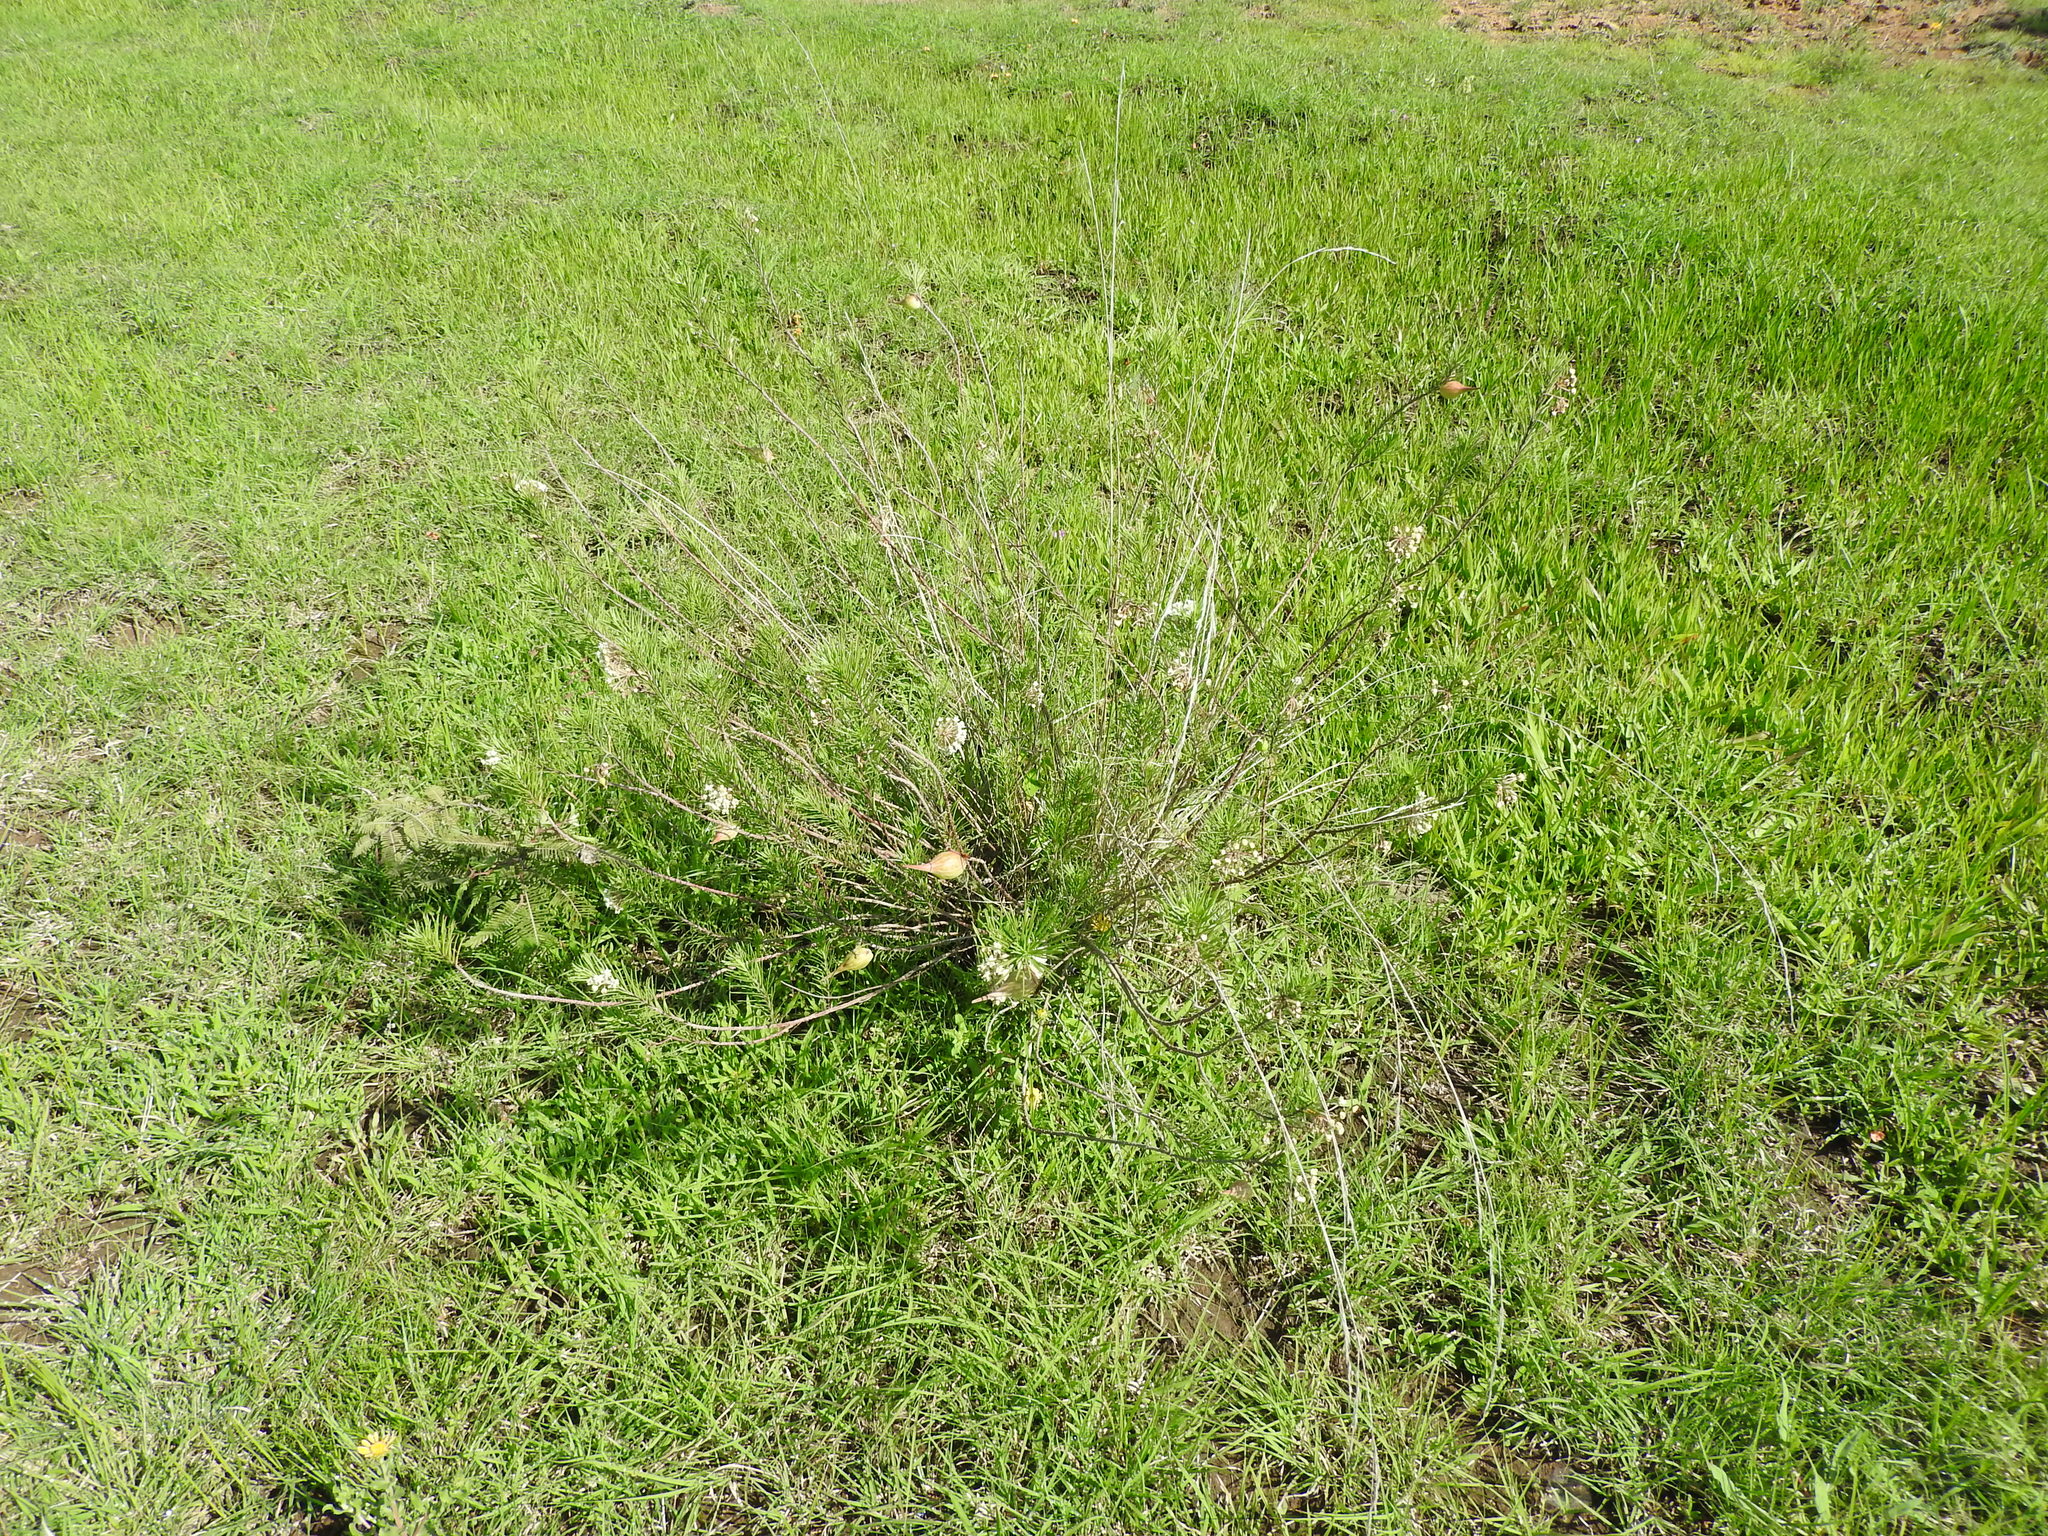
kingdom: Plantae
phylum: Tracheophyta
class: Magnoliopsida
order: Gentianales
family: Apocynaceae
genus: Asclepias
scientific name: Asclepias linaria
